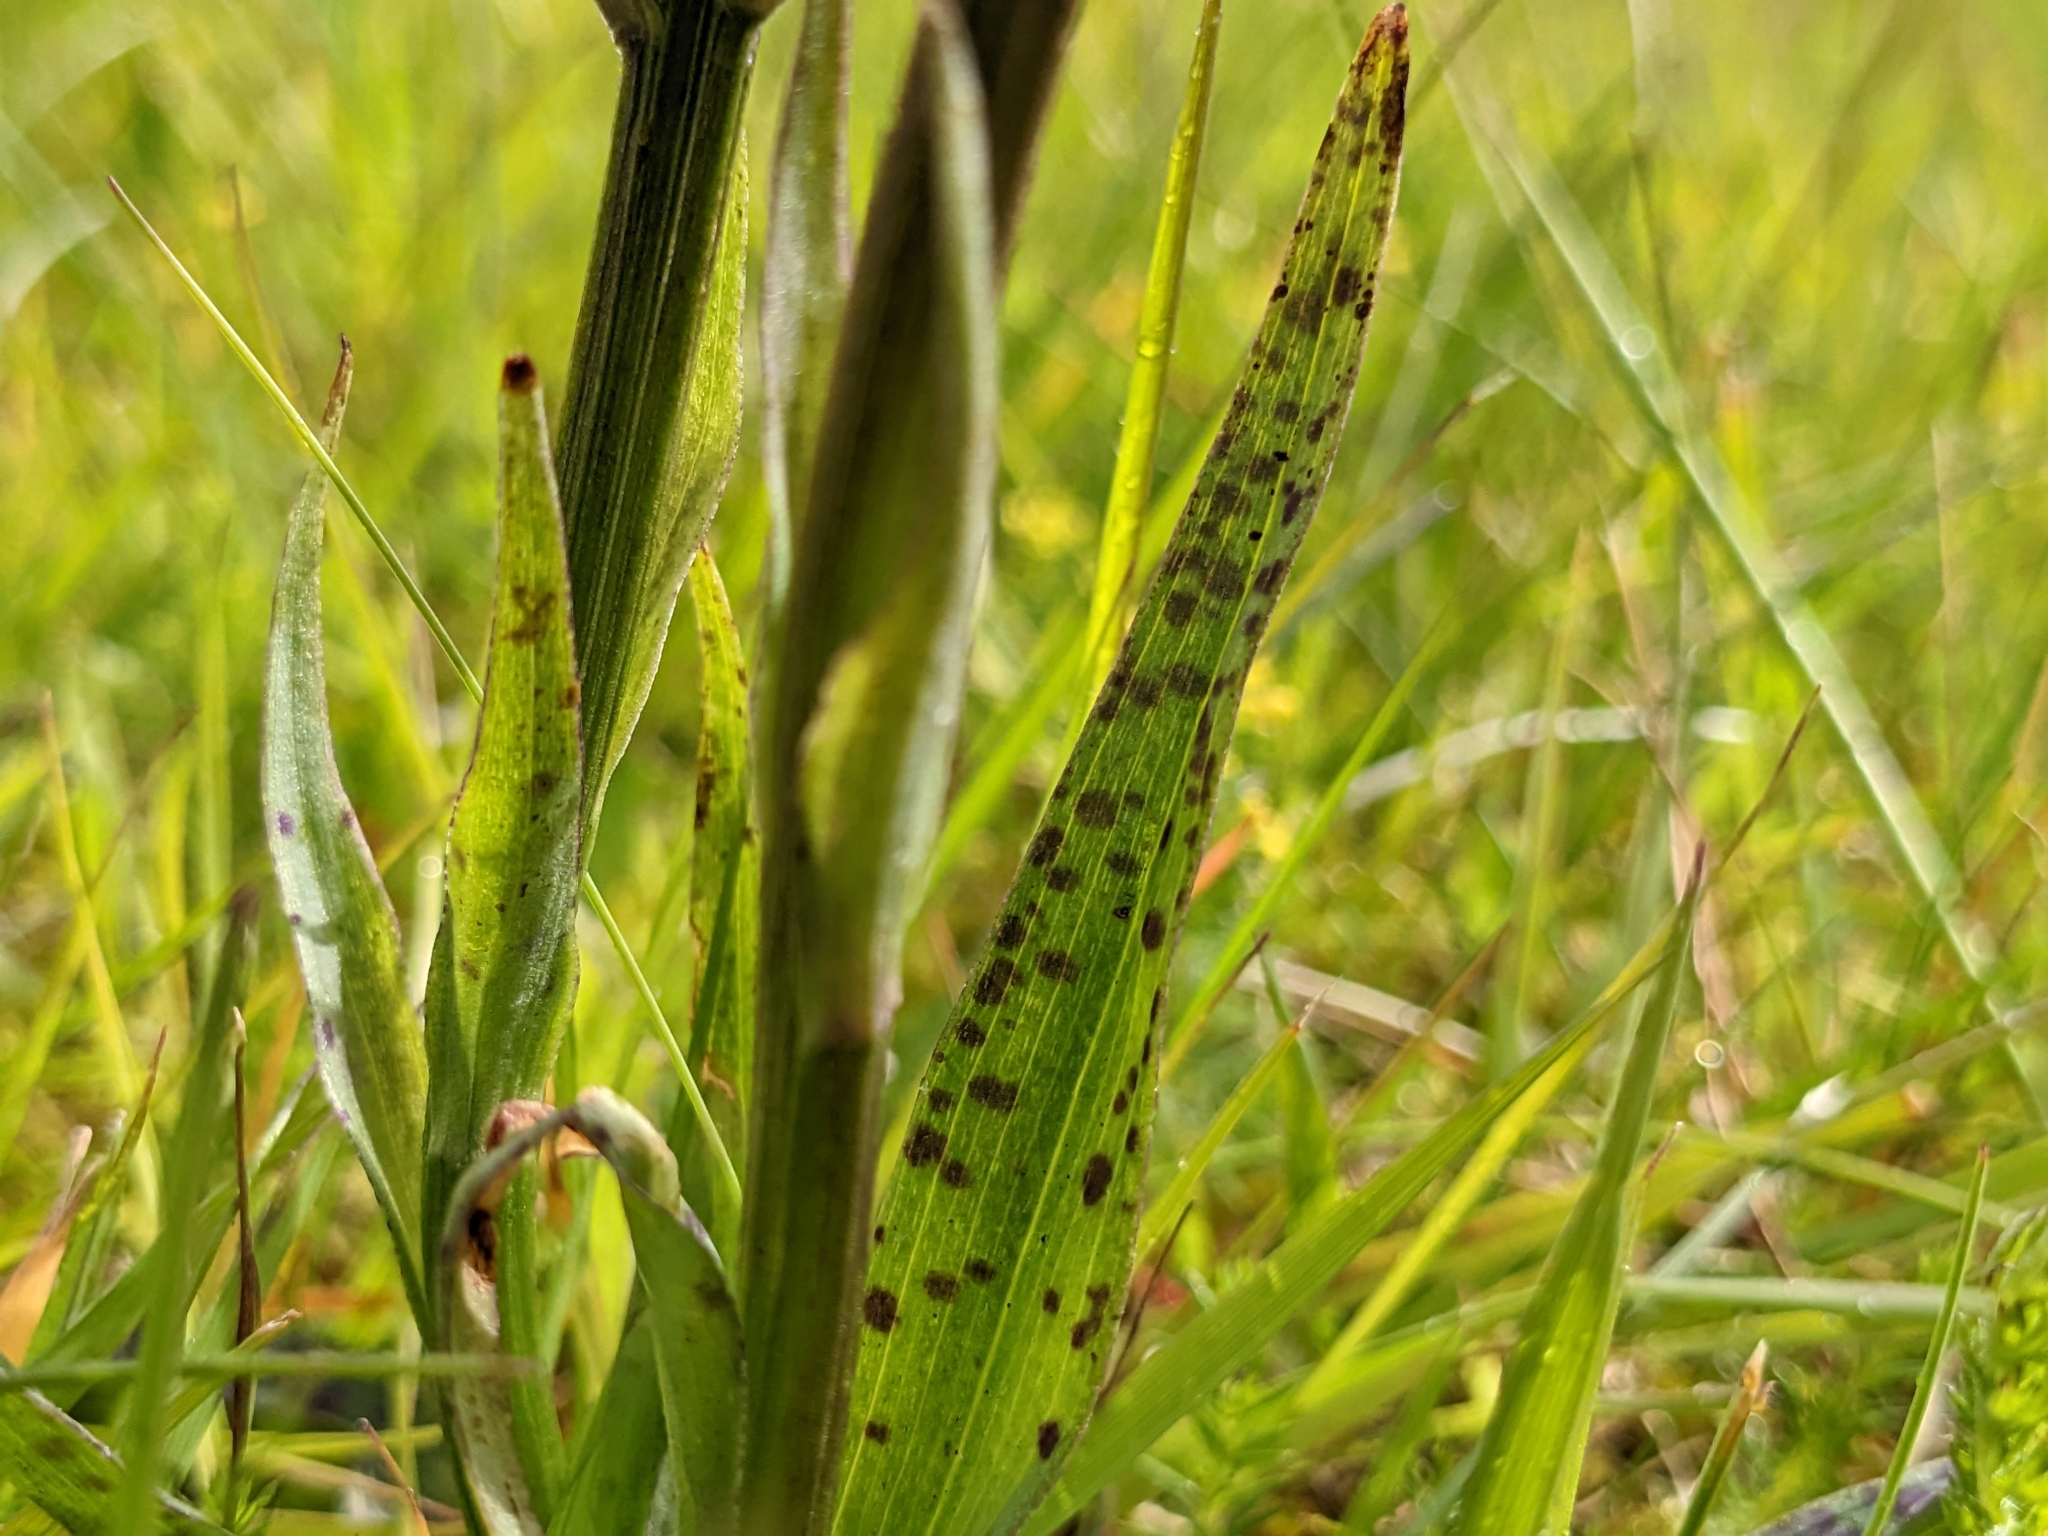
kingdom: Plantae
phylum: Tracheophyta
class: Liliopsida
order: Asparagales
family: Orchidaceae
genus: Dactylorhiza
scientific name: Dactylorhiza maculata
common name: Heath spotted-orchid
